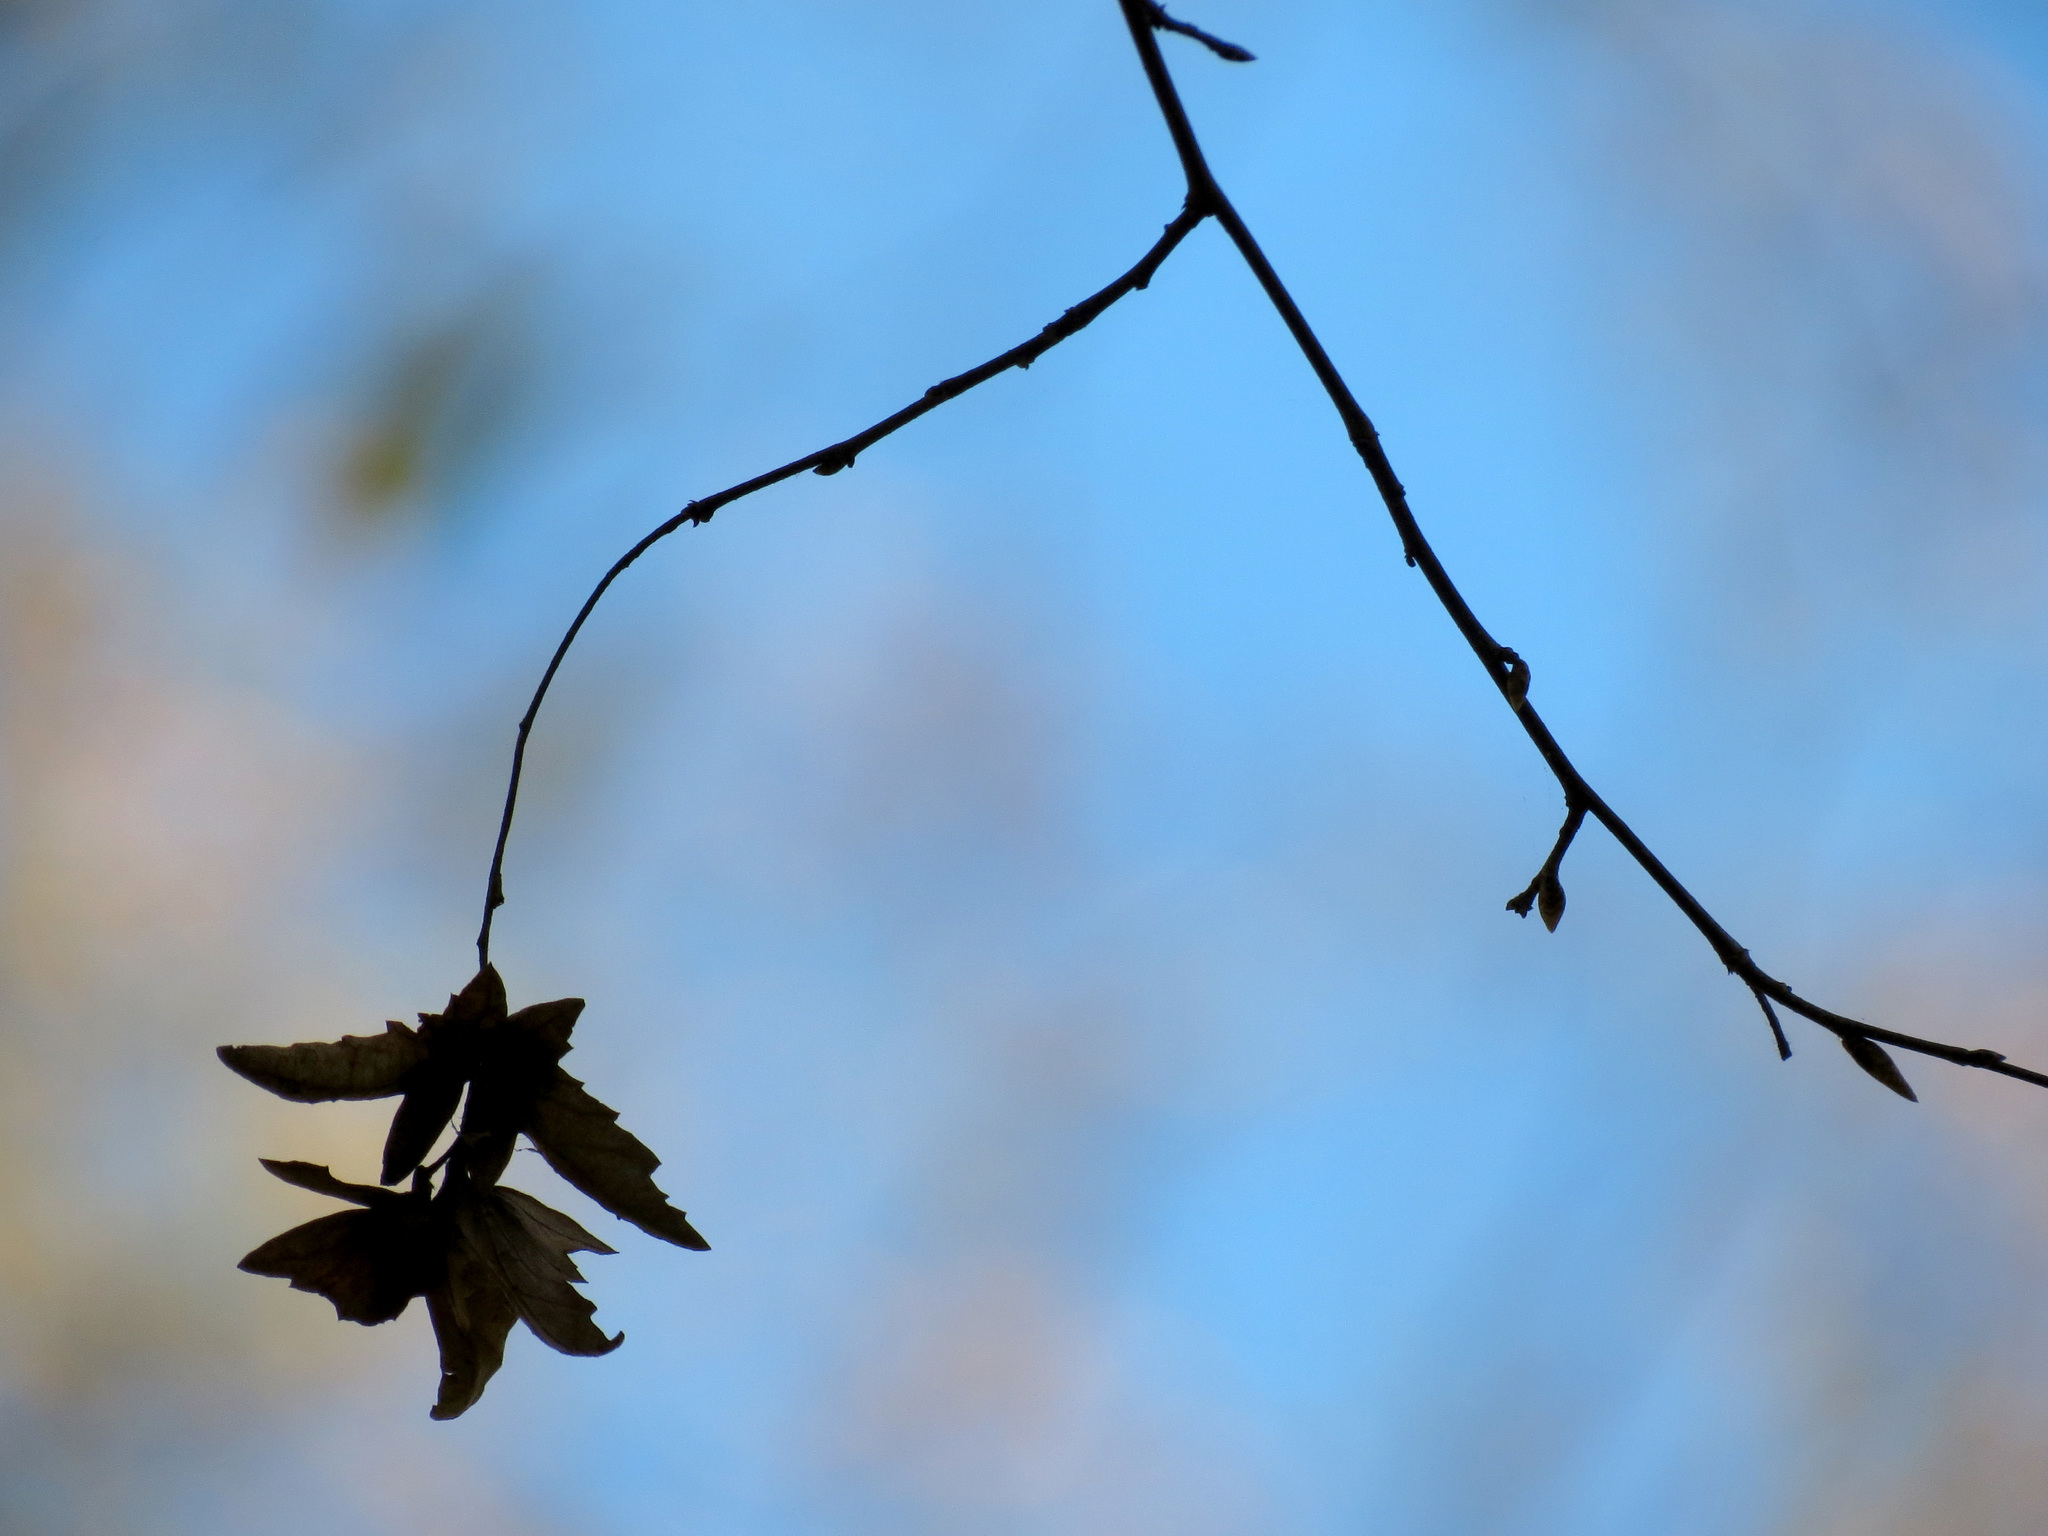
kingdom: Plantae
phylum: Tracheophyta
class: Magnoliopsida
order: Fagales
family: Betulaceae
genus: Carpinus
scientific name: Carpinus caroliniana
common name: American hornbeam
